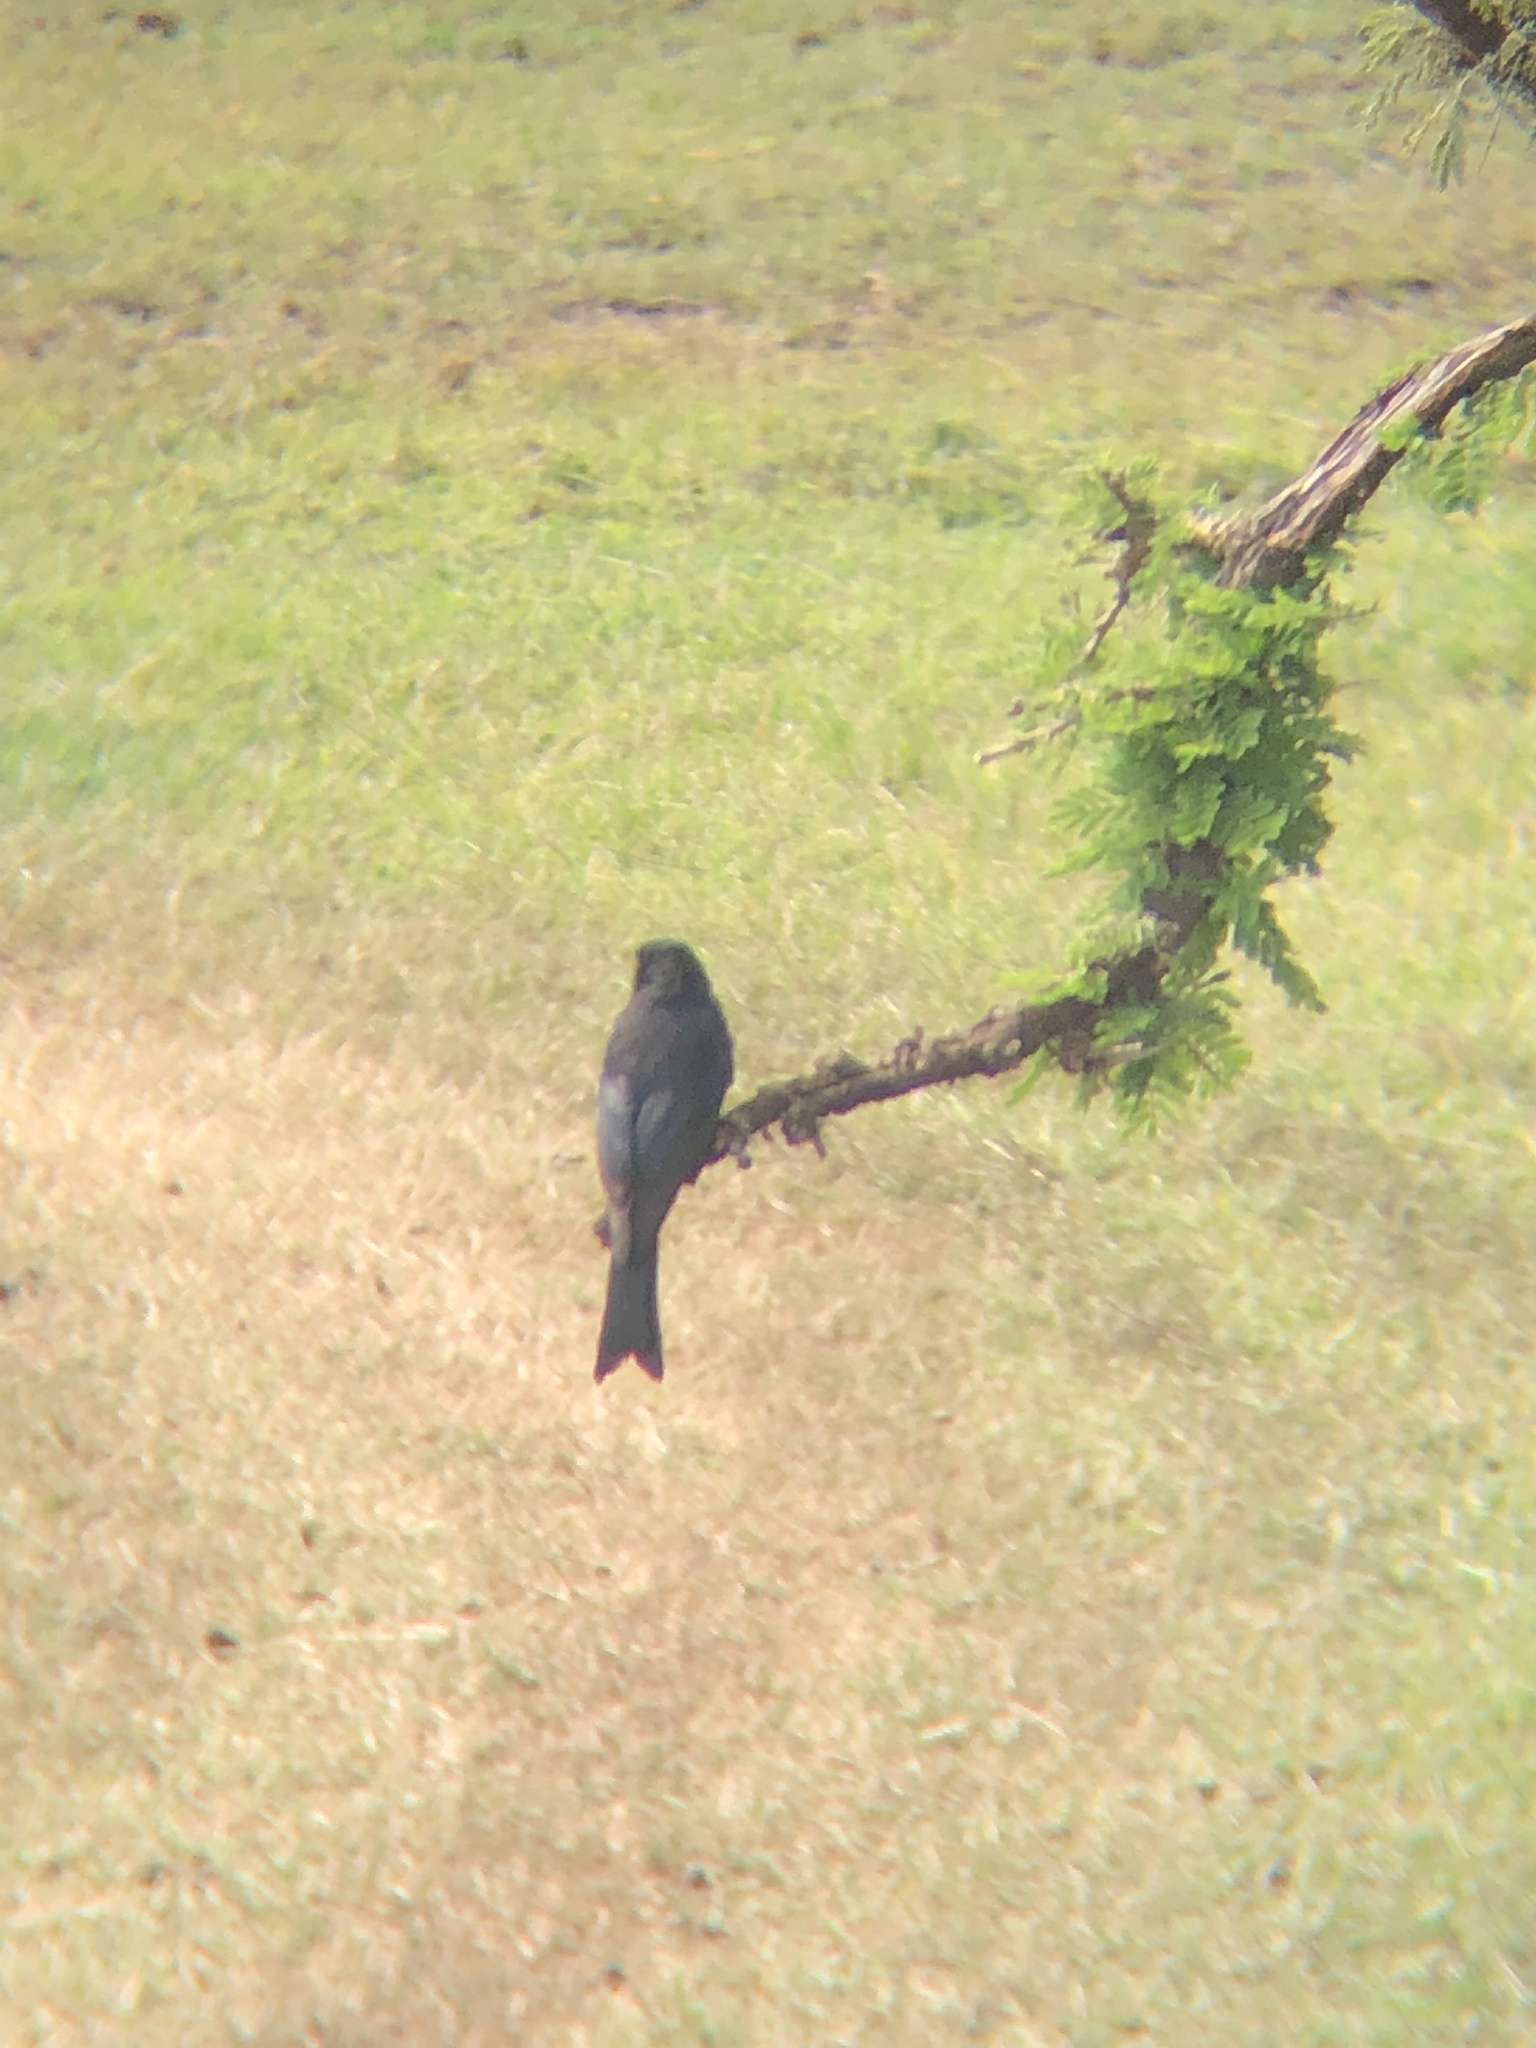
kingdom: Animalia
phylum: Chordata
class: Aves
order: Passeriformes
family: Dicruridae
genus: Dicrurus
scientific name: Dicrurus adsimilis
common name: Fork-tailed drongo
